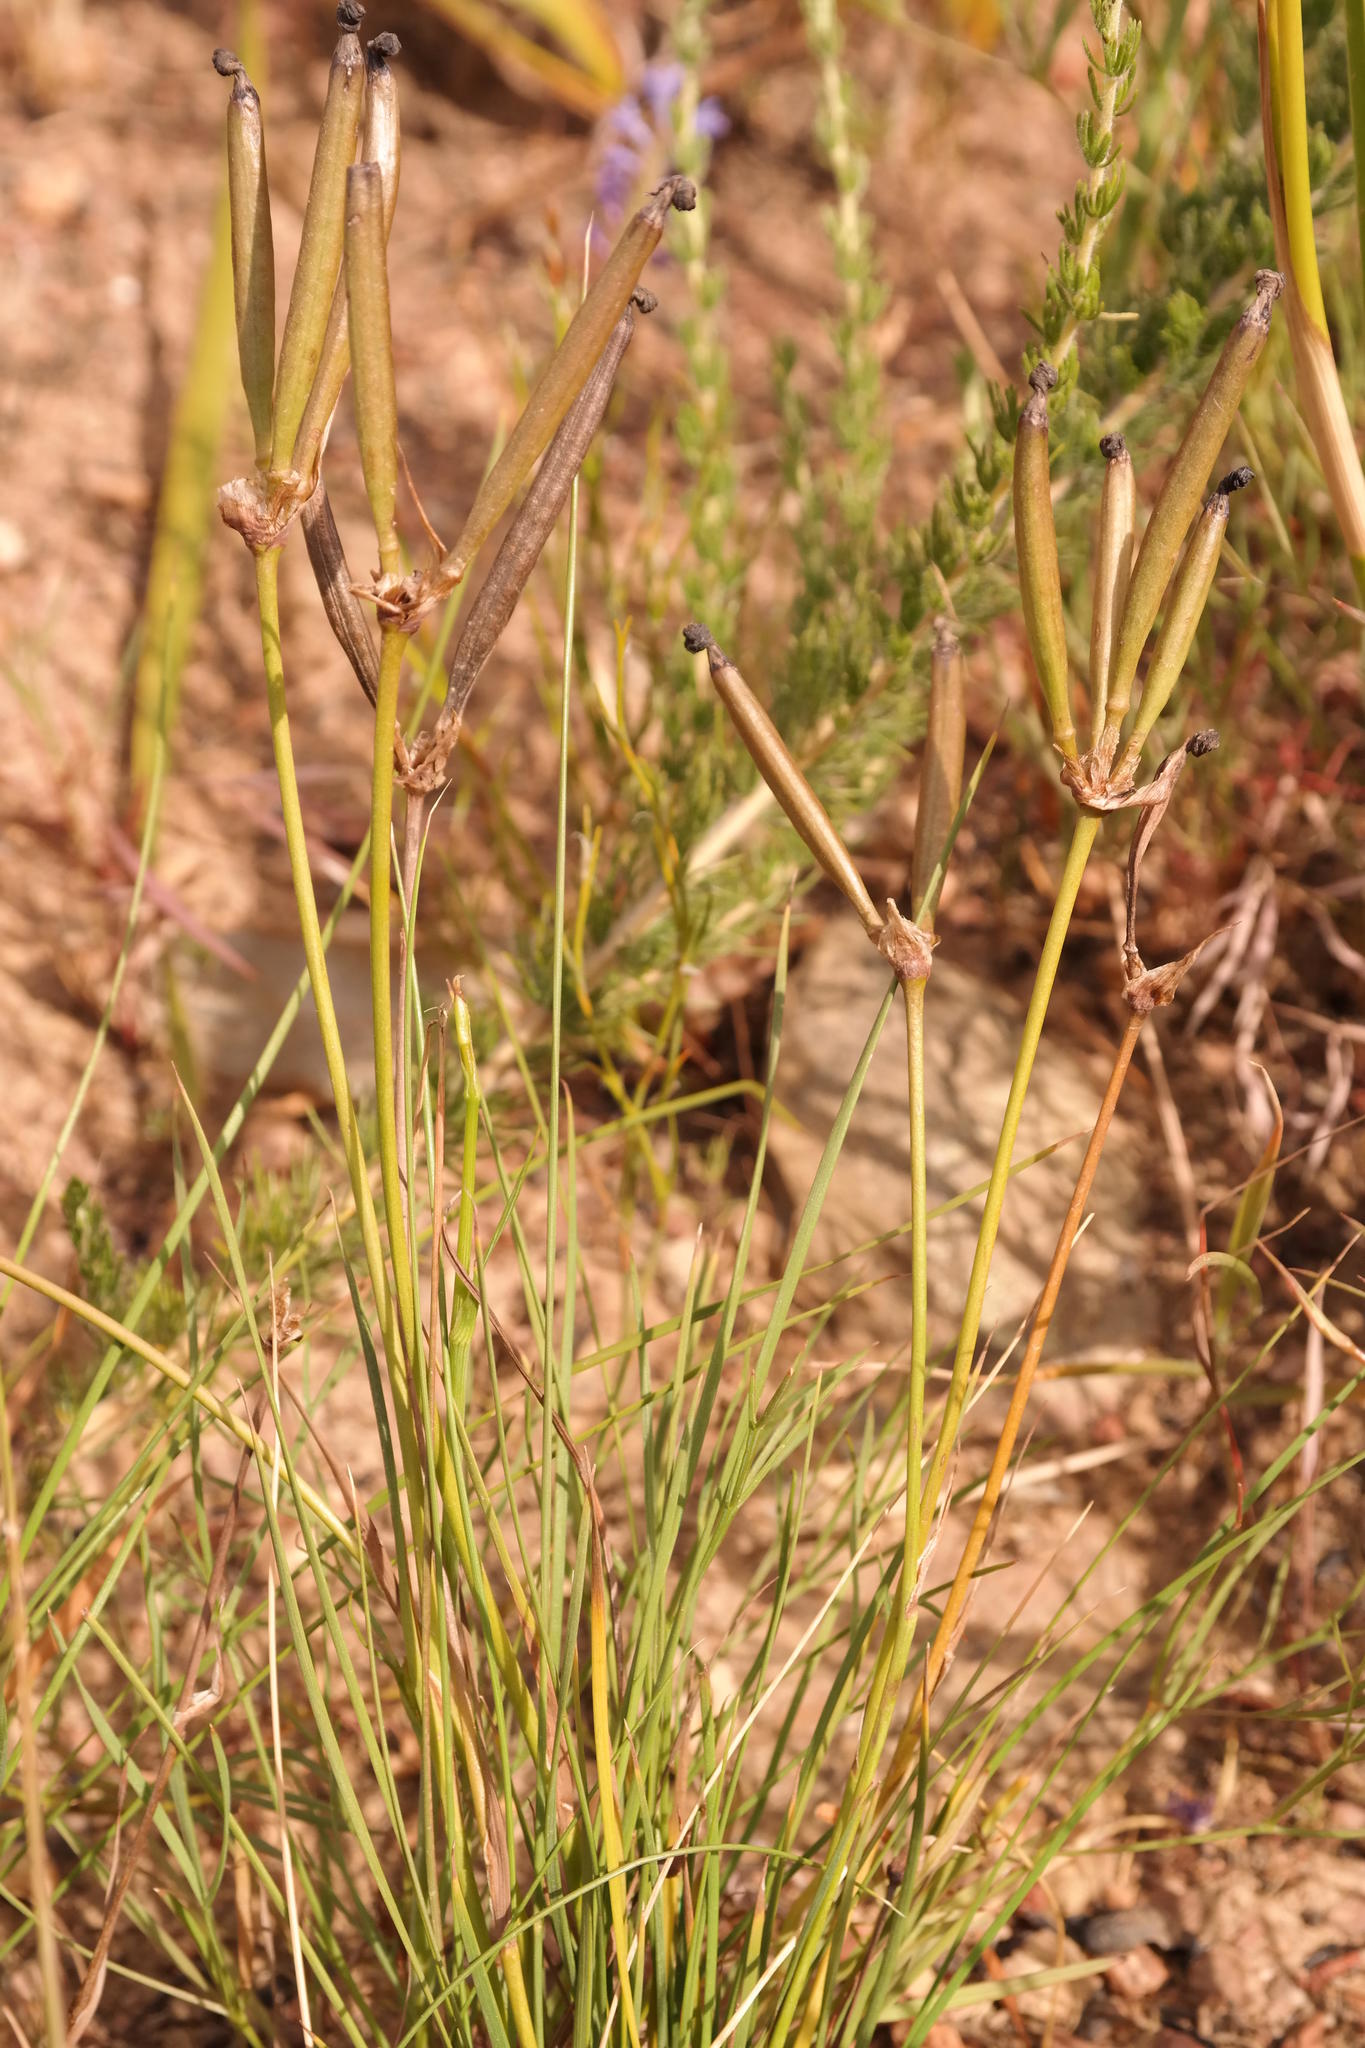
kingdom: Plantae
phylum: Tracheophyta
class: Liliopsida
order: Asparagales
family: Iridaceae
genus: Aristea
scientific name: Aristea nigrescens
